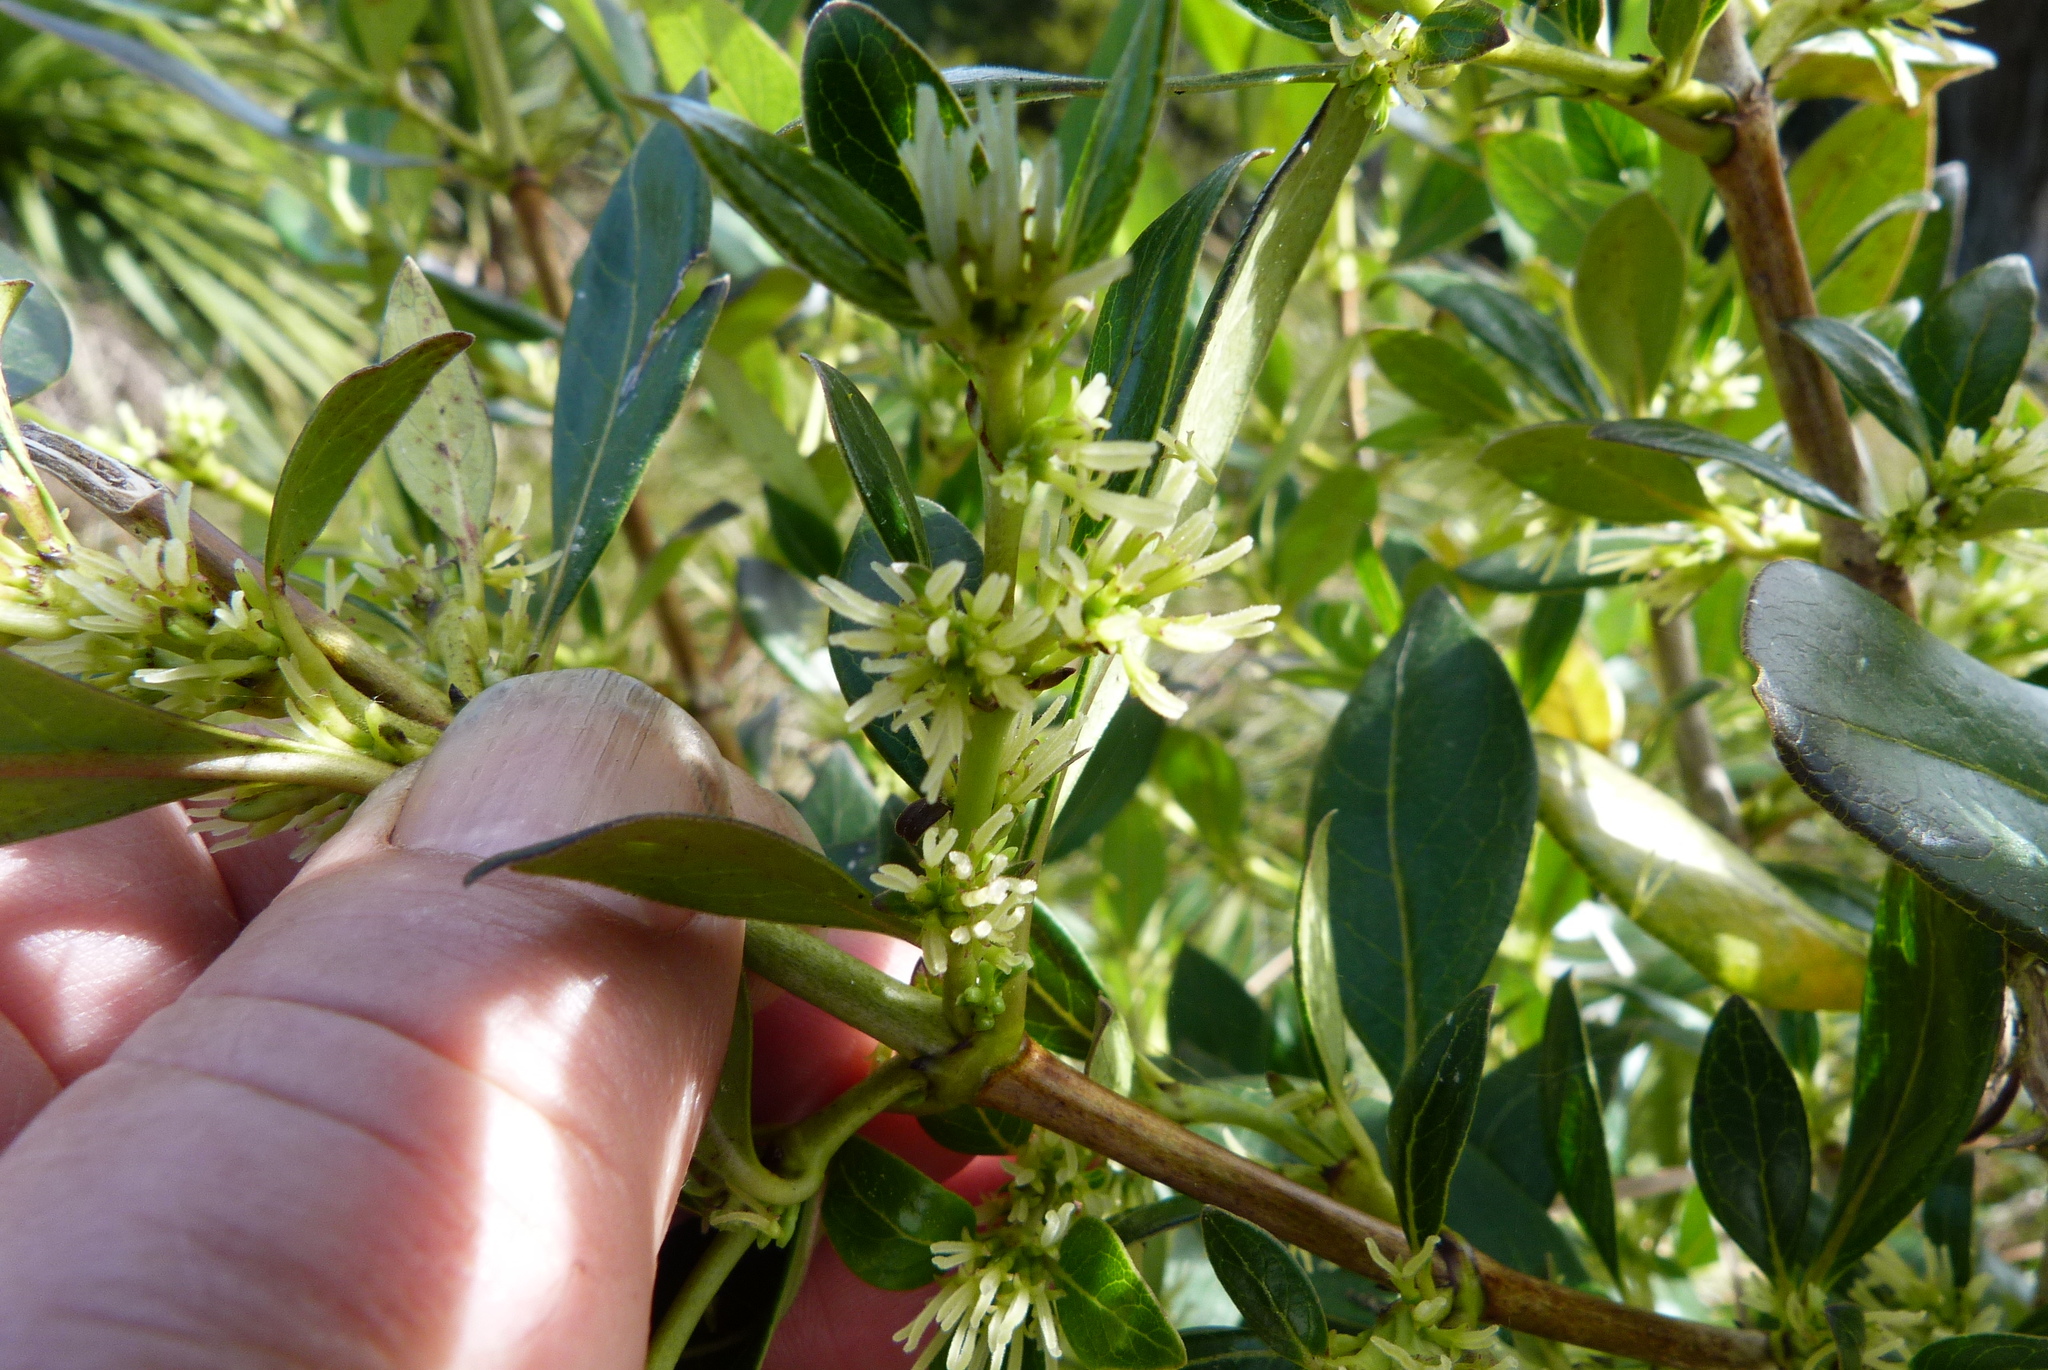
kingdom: Plantae
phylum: Tracheophyta
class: Magnoliopsida
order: Gentianales
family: Rubiaceae
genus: Coprosma
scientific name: Coprosma robusta
